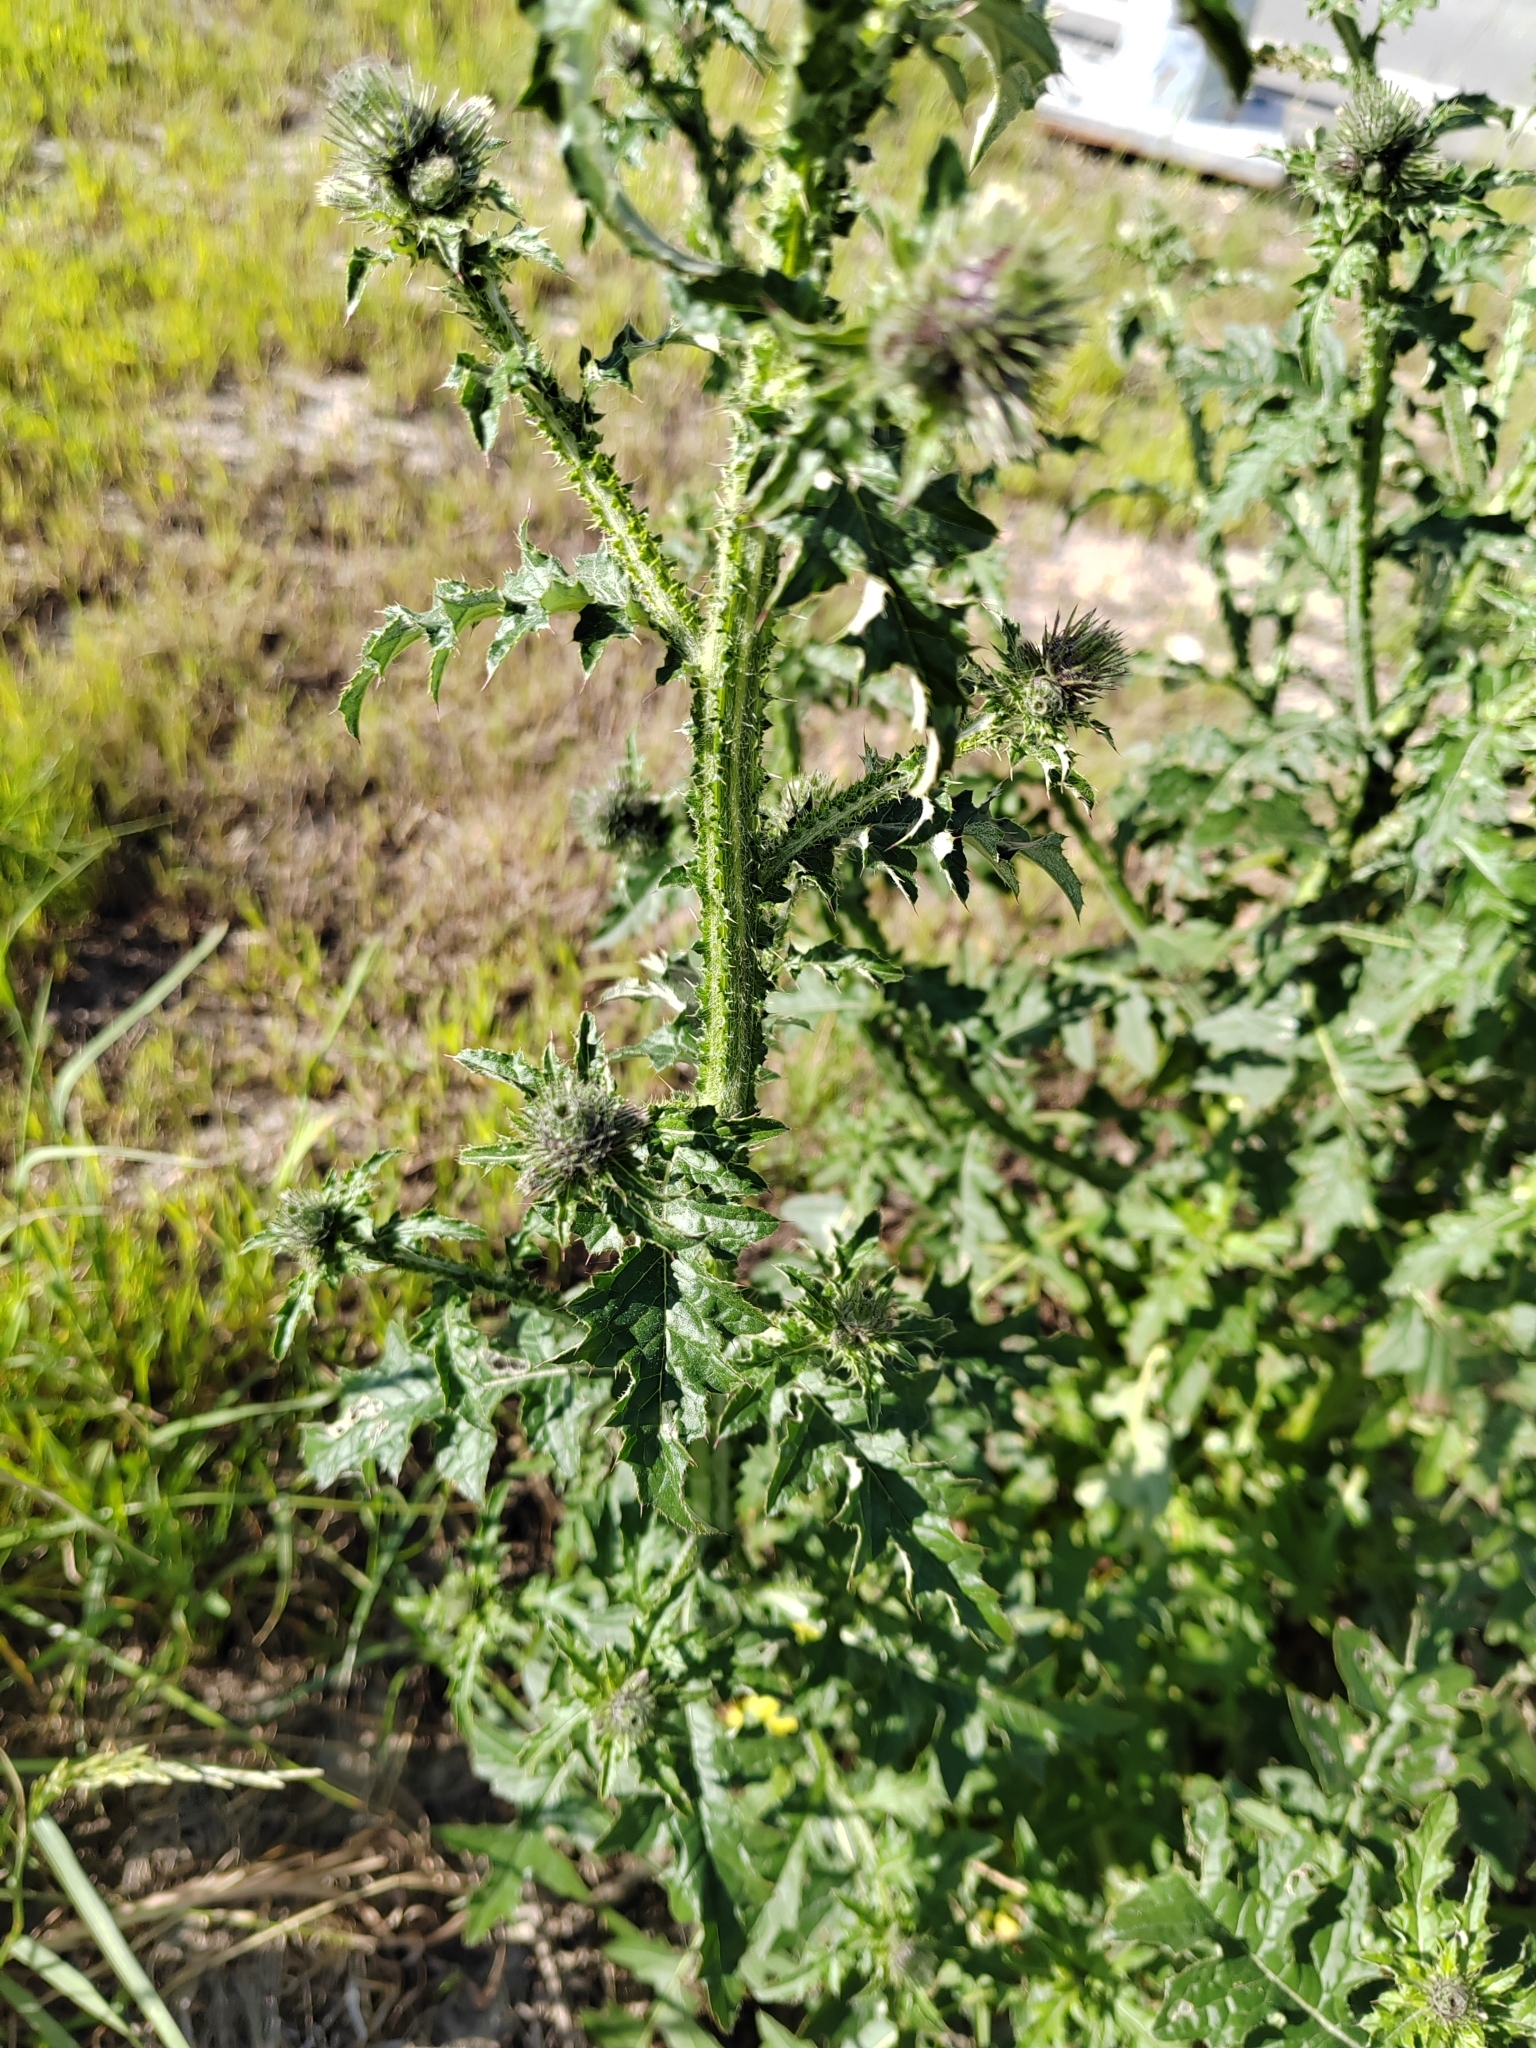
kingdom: Plantae
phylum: Tracheophyta
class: Magnoliopsida
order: Asterales
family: Asteraceae
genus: Carduus
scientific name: Carduus crispus
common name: Welted thistle
